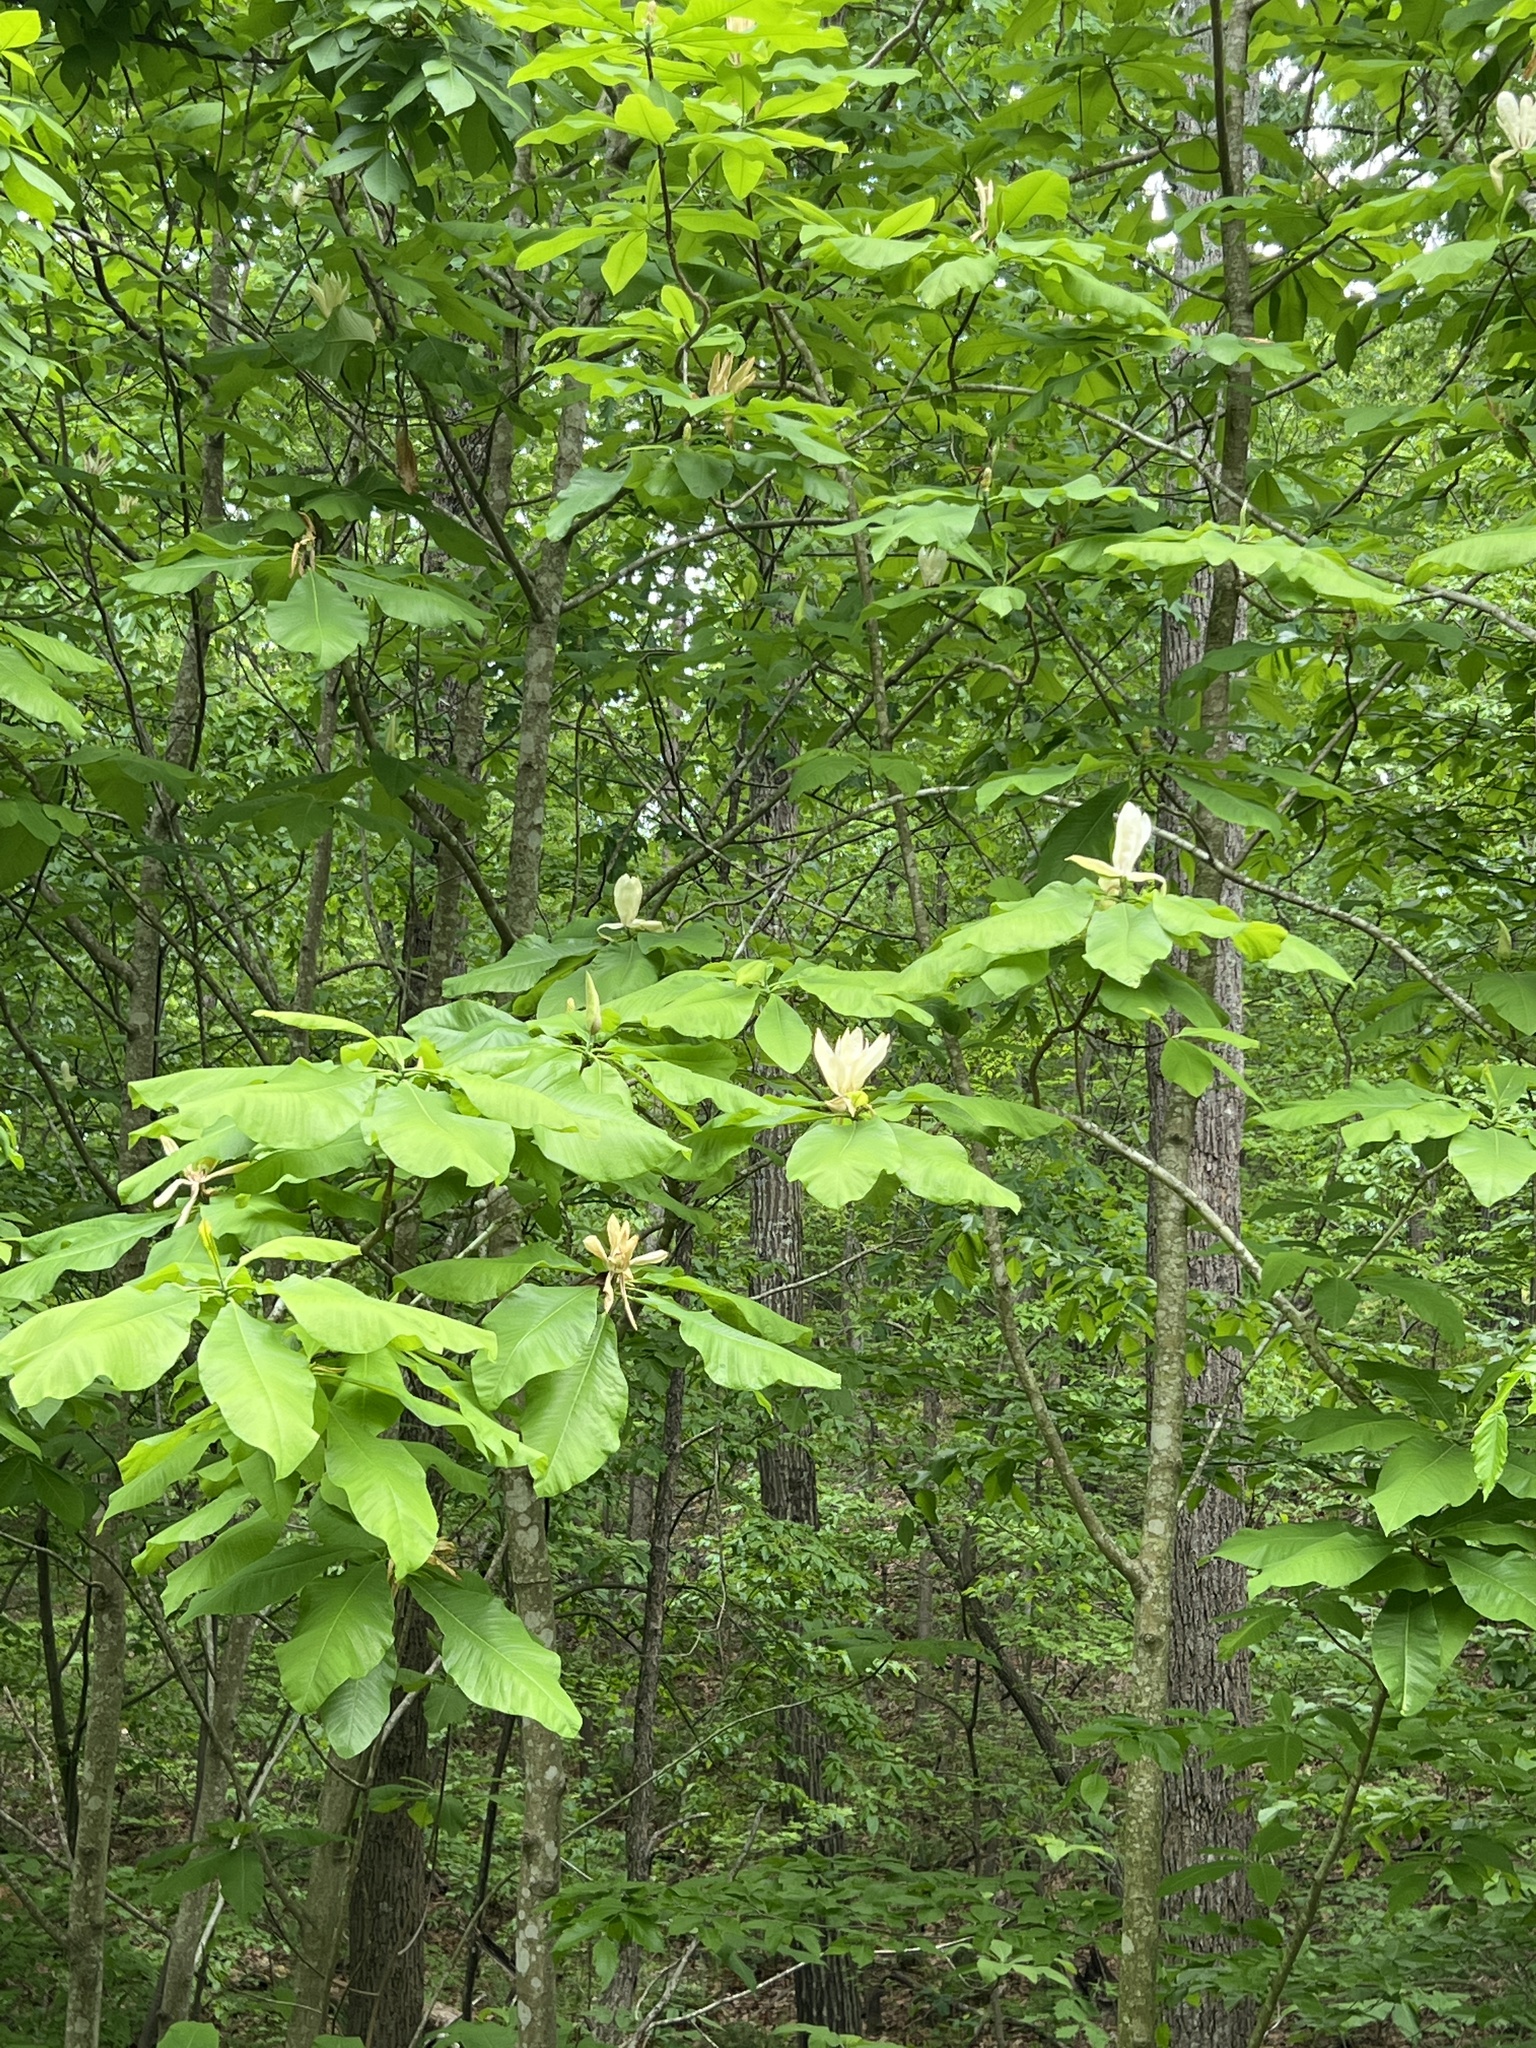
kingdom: Plantae
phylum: Tracheophyta
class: Magnoliopsida
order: Magnoliales
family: Magnoliaceae
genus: Magnolia
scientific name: Magnolia tripetala
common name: Umbrella magnolia
